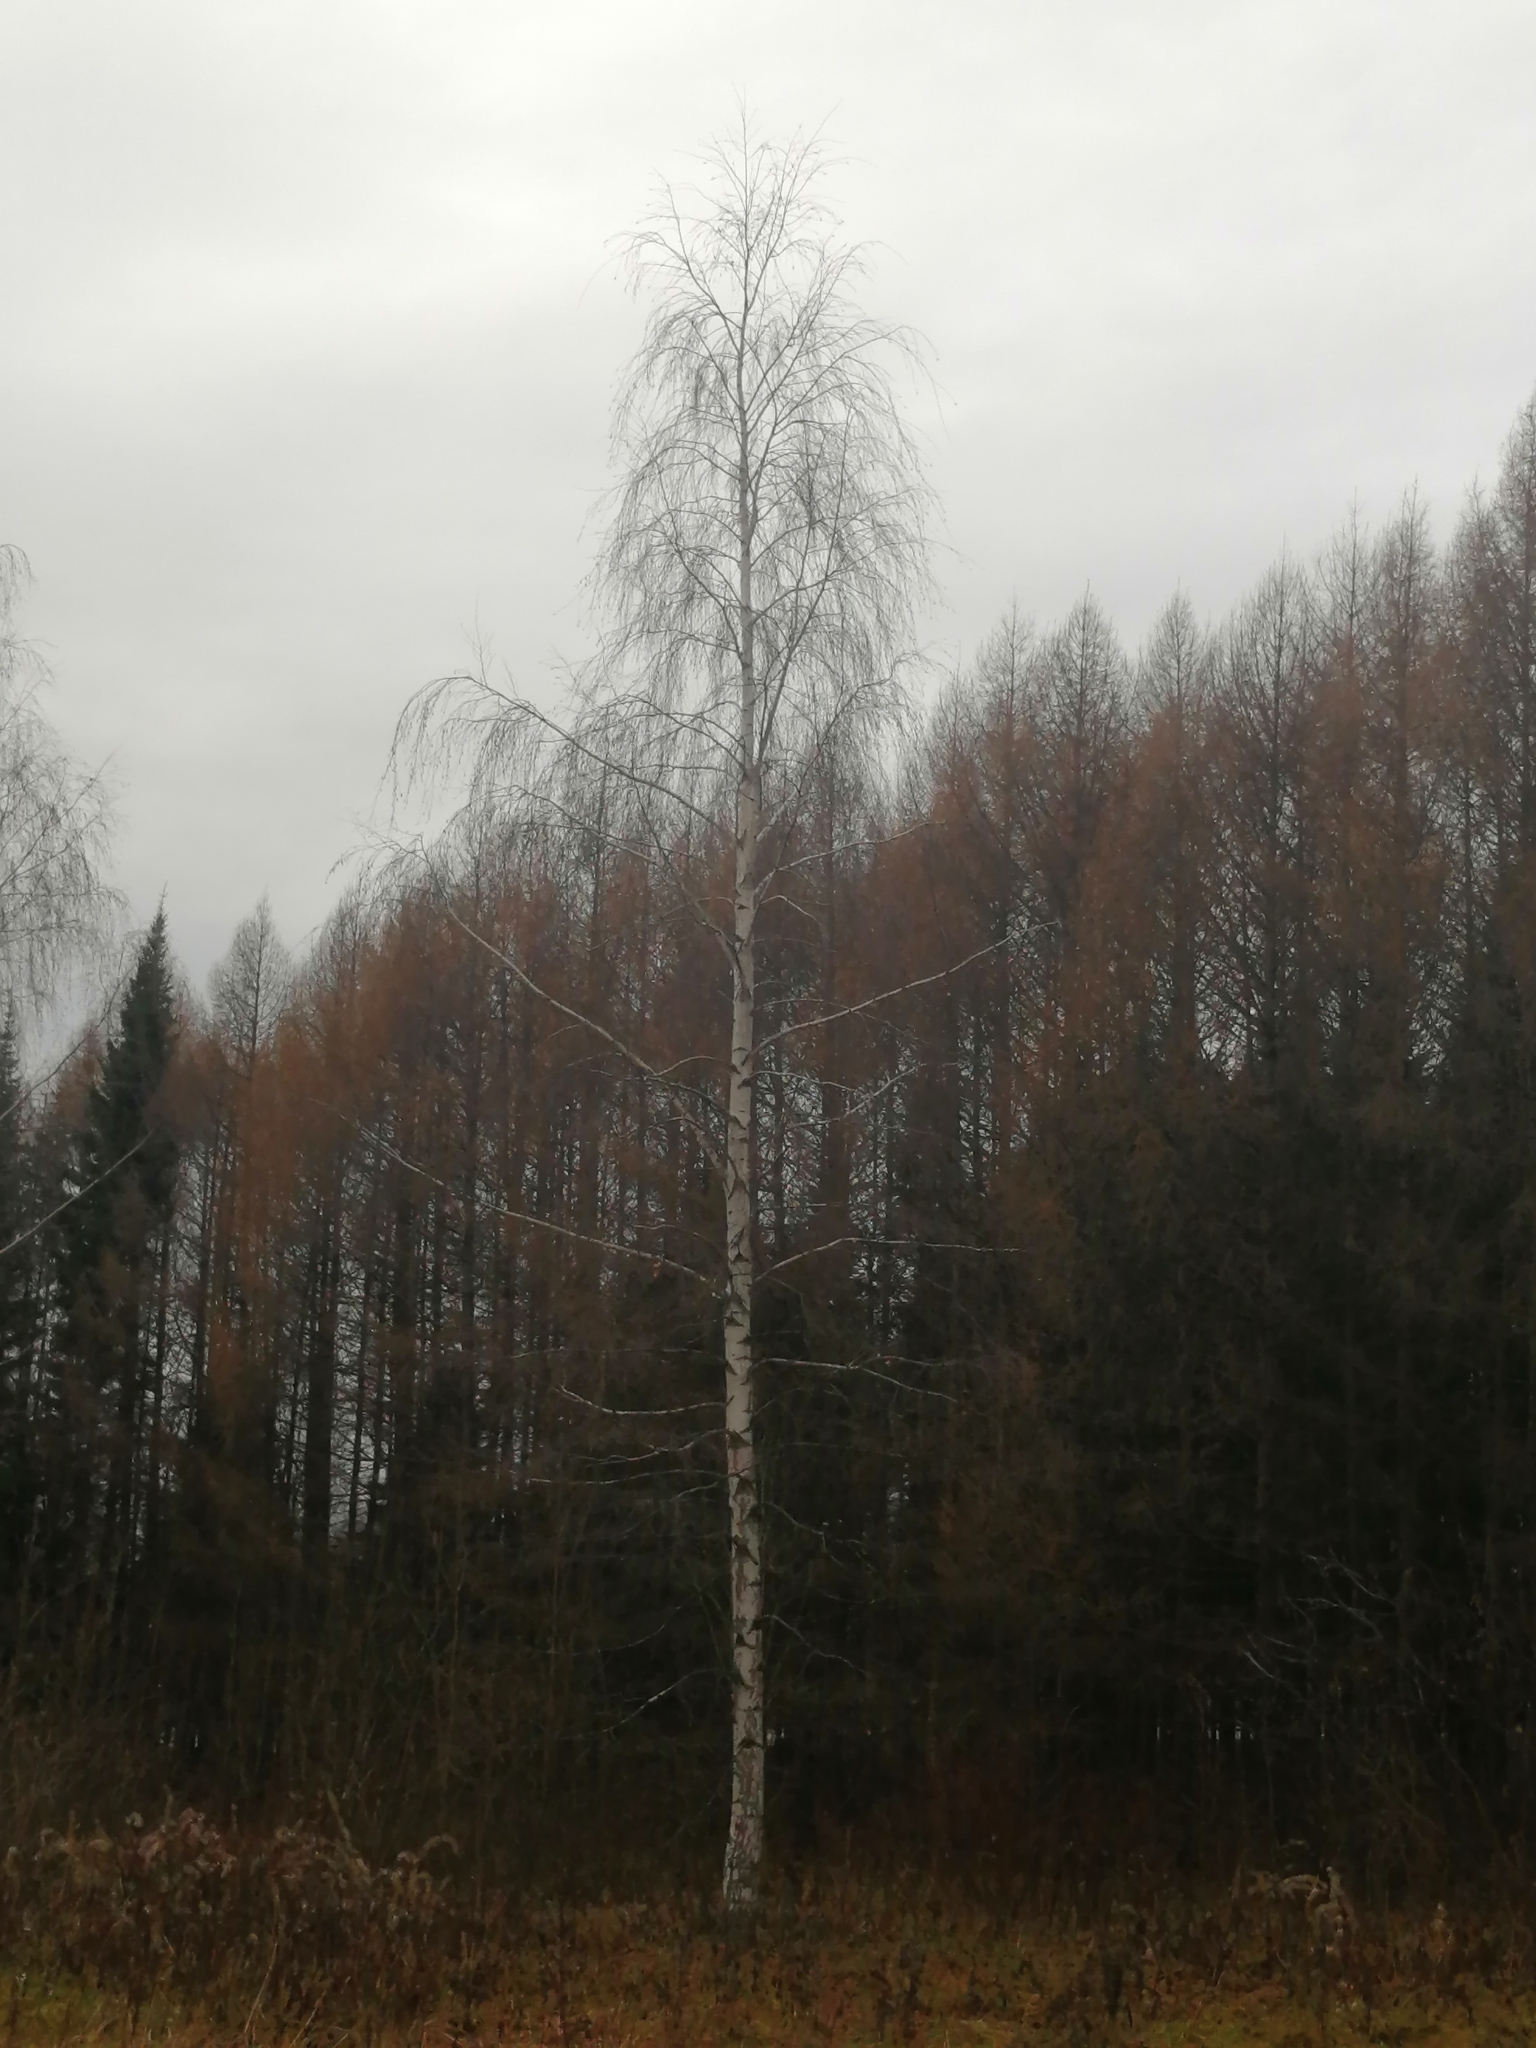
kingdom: Plantae
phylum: Tracheophyta
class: Magnoliopsida
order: Fagales
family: Betulaceae
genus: Betula
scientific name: Betula pendula
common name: Silver birch
